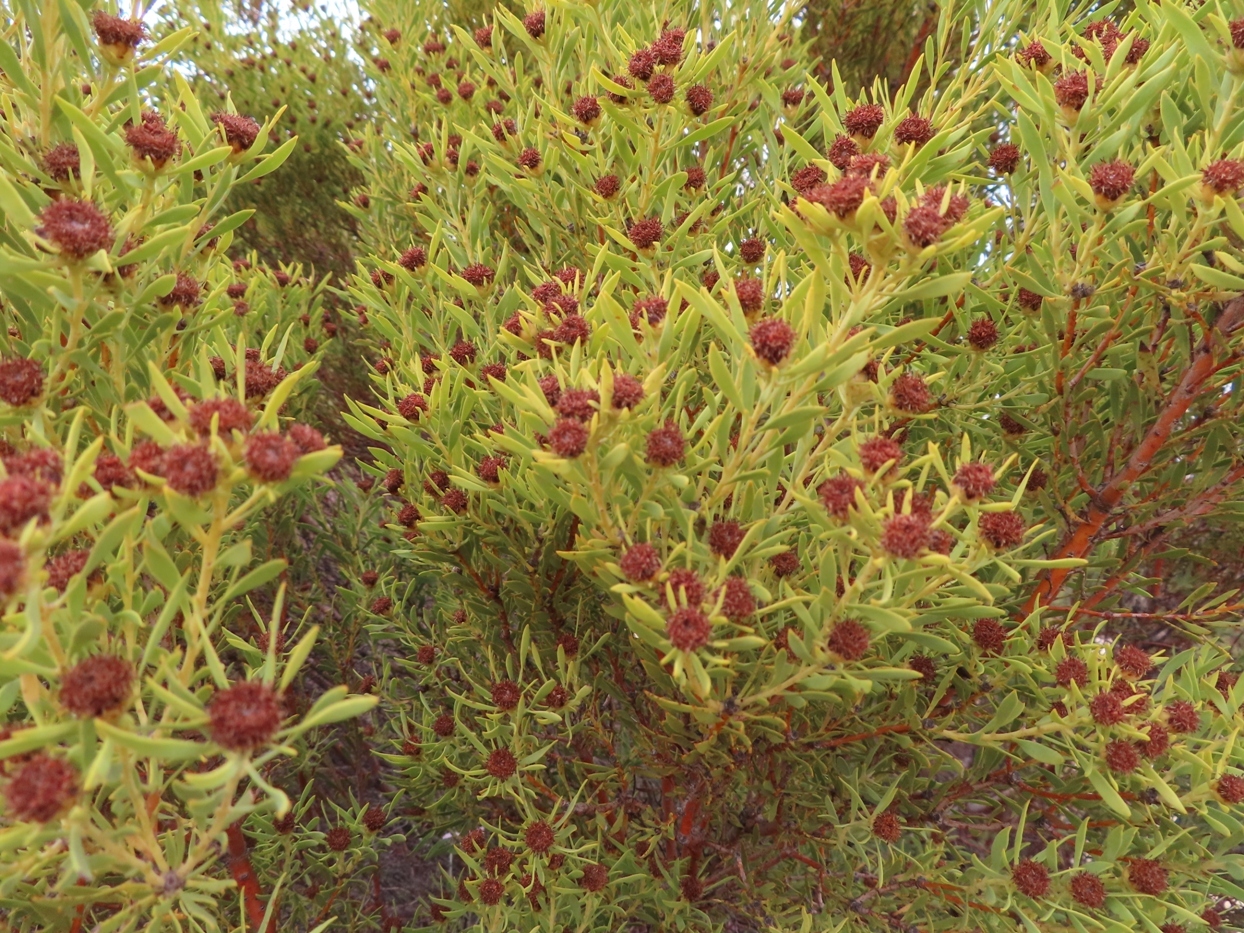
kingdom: Plantae
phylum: Tracheophyta
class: Magnoliopsida
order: Proteales
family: Proteaceae
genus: Leucadendron
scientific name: Leucadendron pubescens
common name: Grey conebush
